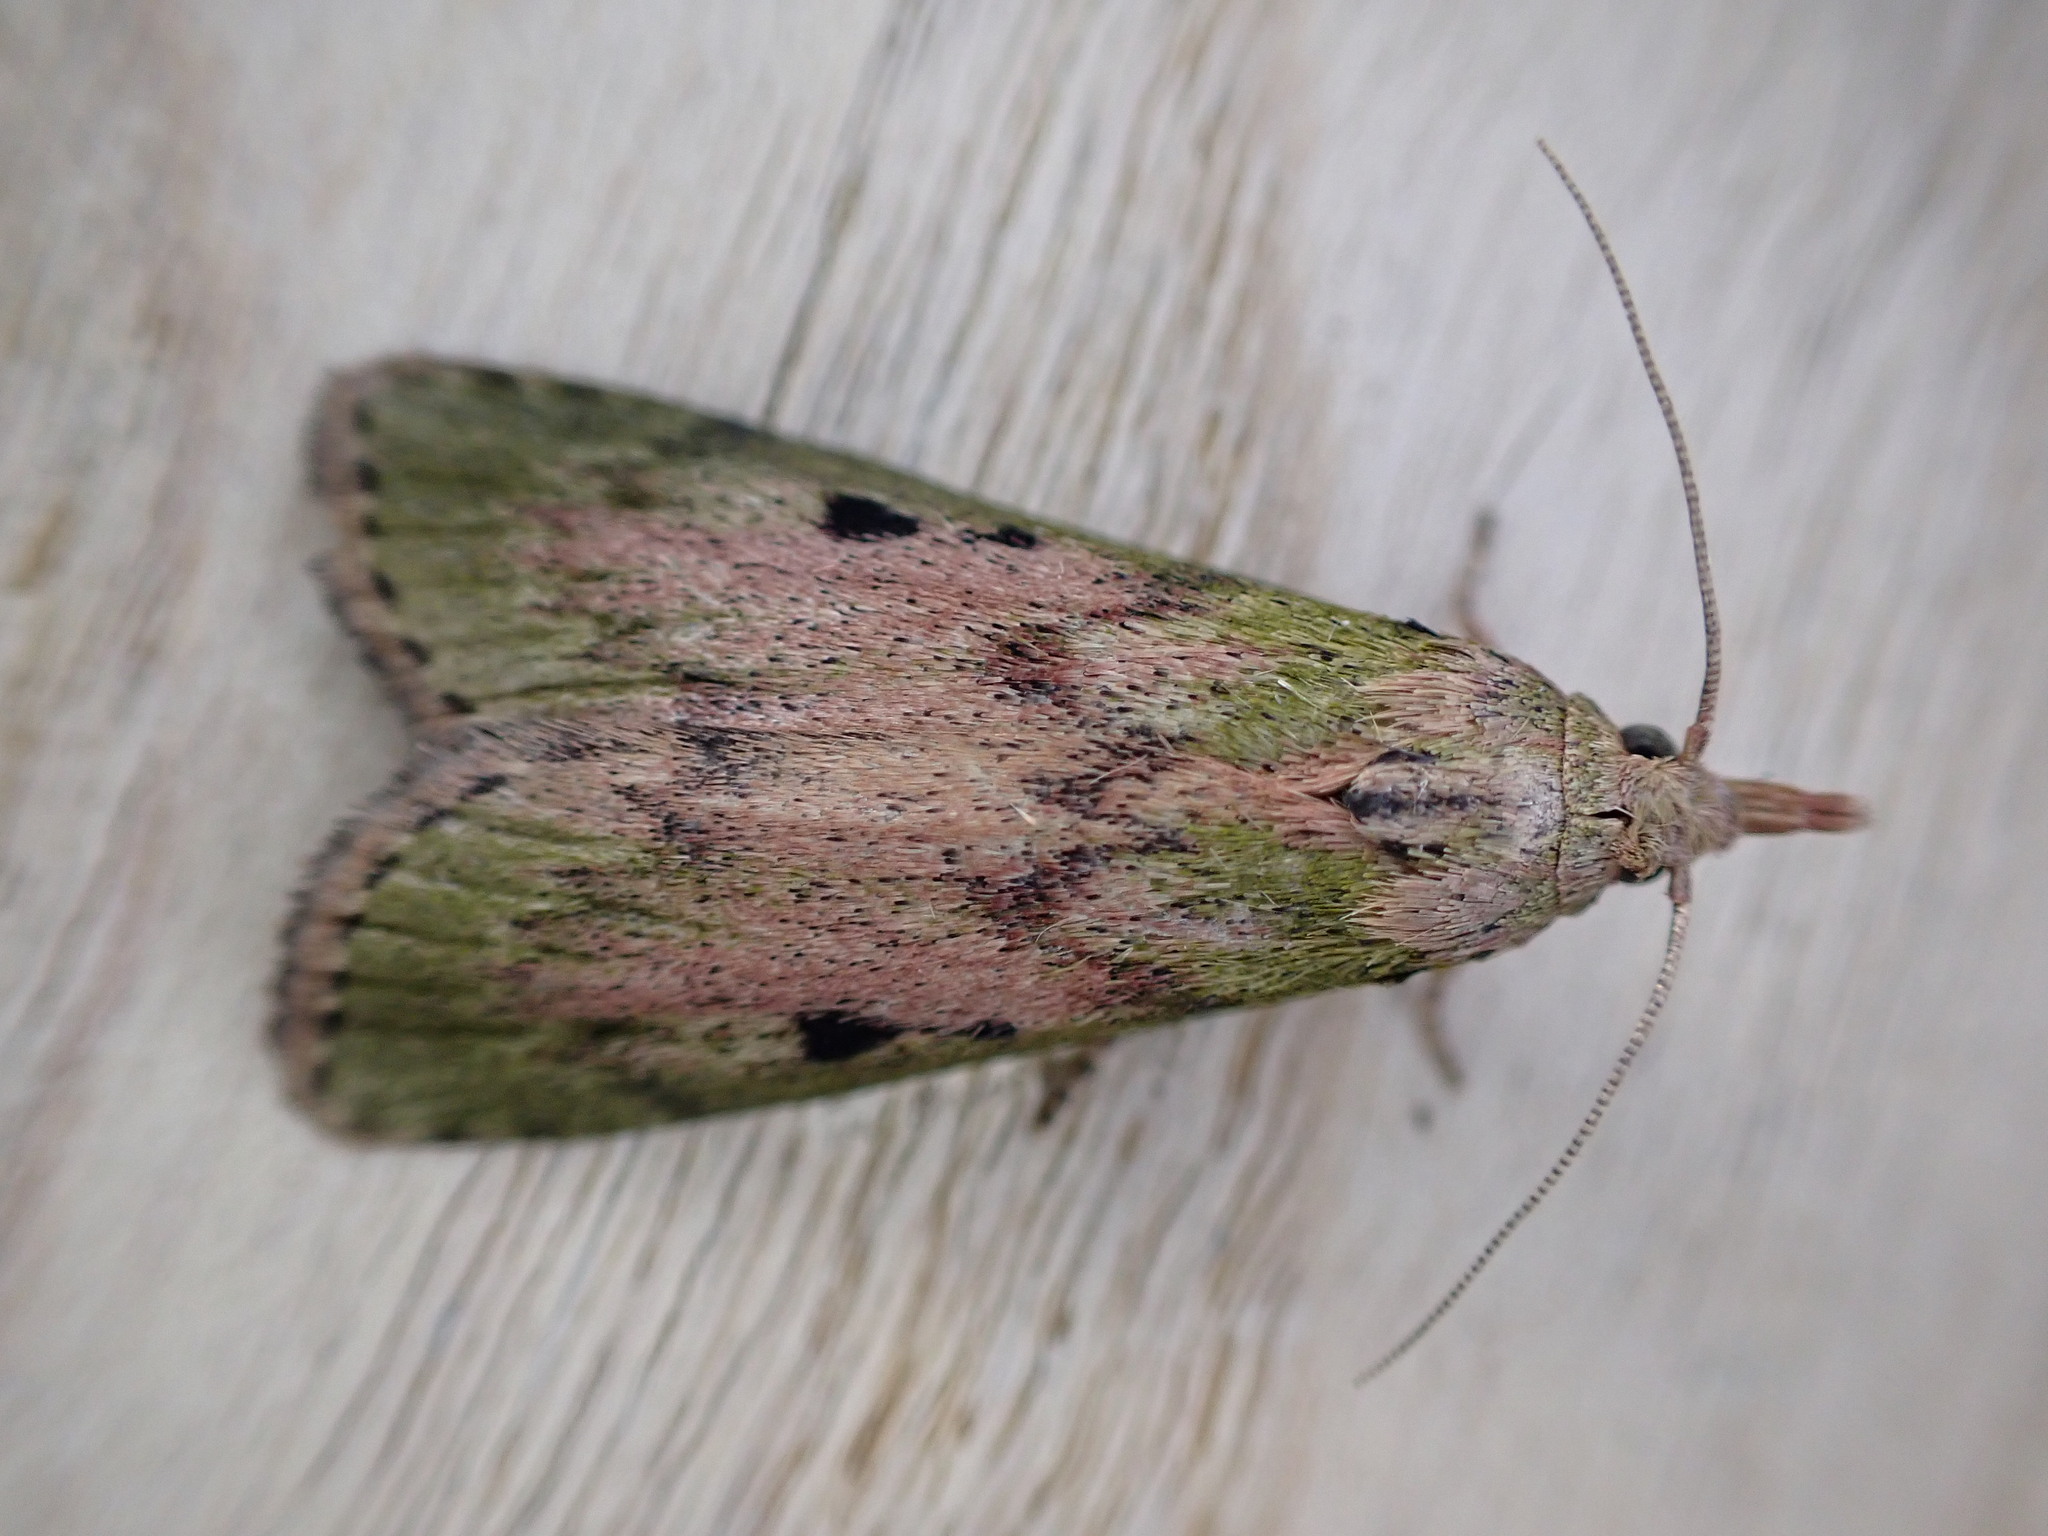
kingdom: Animalia
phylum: Arthropoda
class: Insecta
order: Lepidoptera
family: Pyralidae
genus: Aphomia
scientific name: Aphomia sociella
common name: Bee moth
